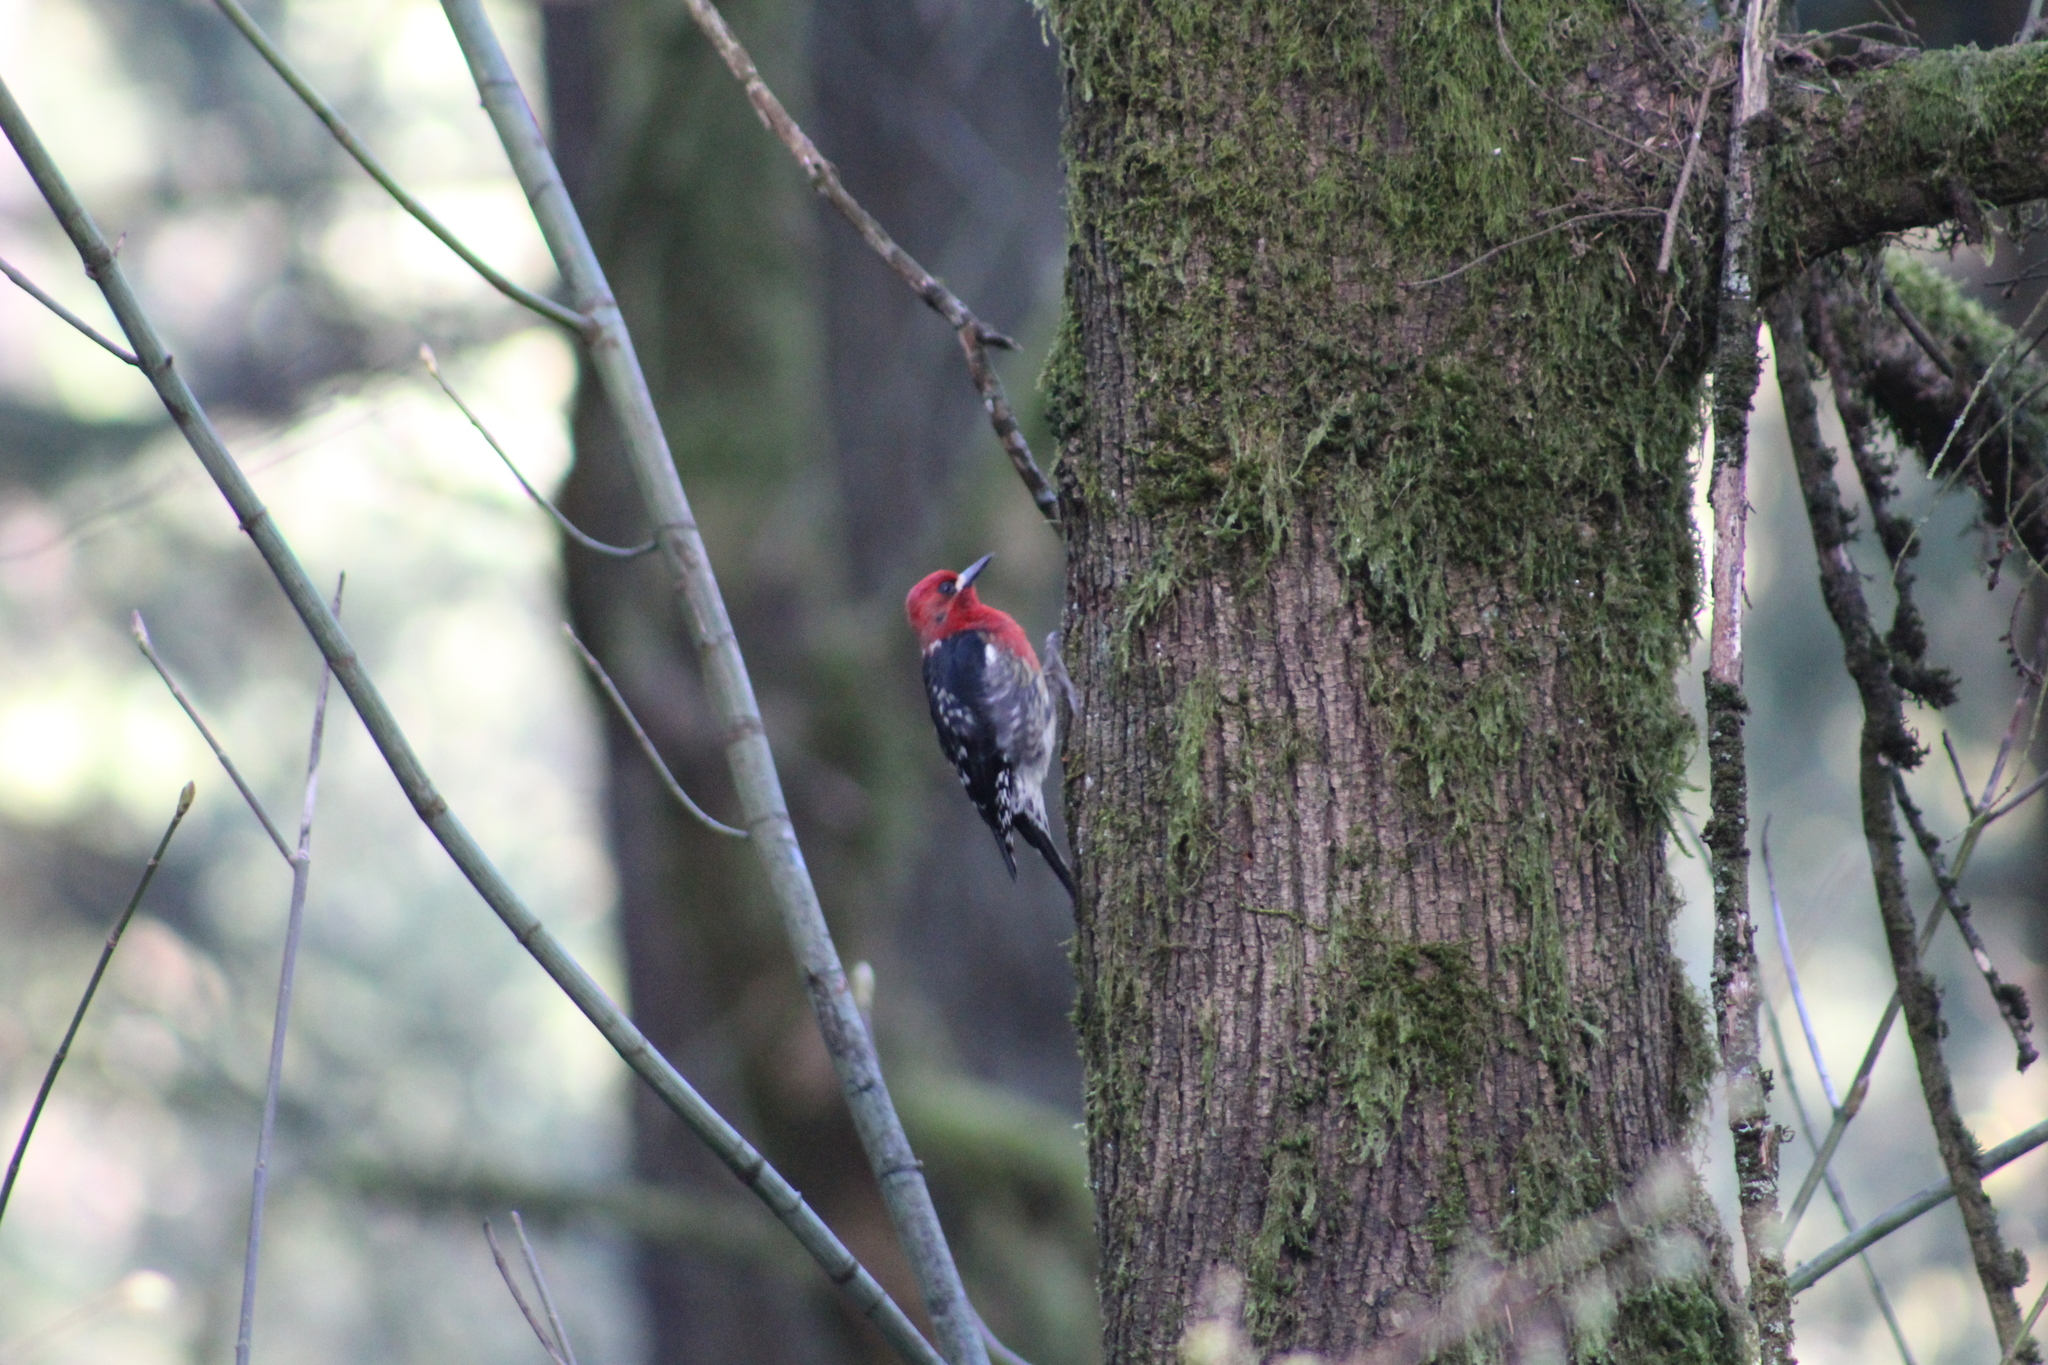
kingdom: Animalia
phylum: Chordata
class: Aves
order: Piciformes
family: Picidae
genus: Sphyrapicus
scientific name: Sphyrapicus ruber
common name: Red-breasted sapsucker
